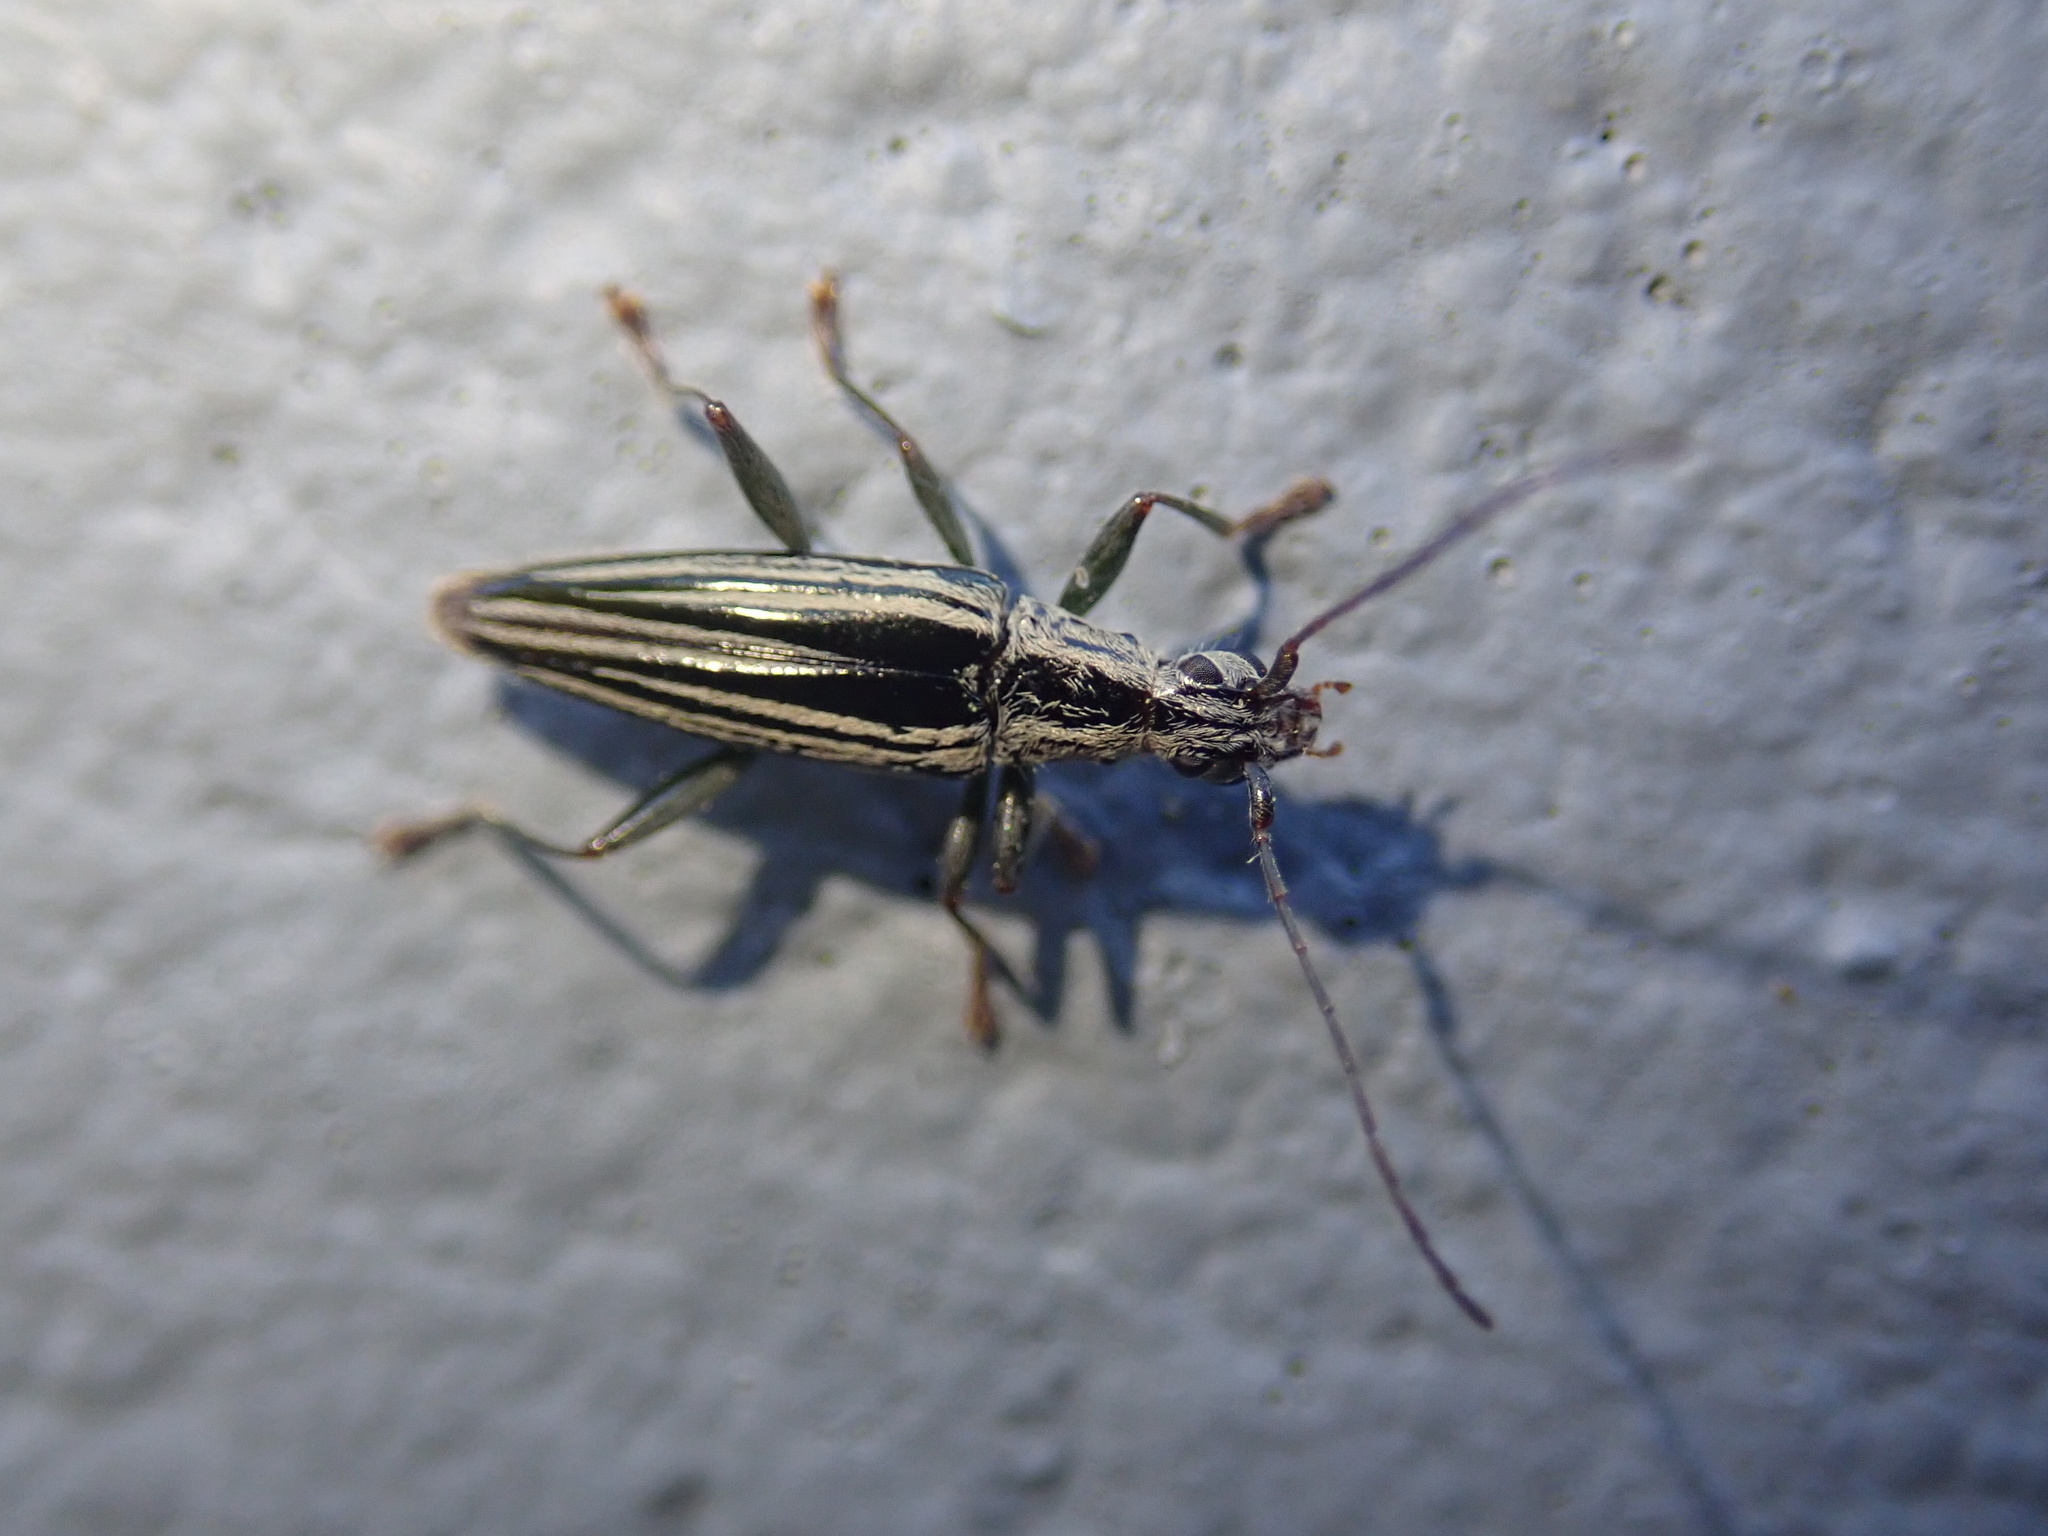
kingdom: Animalia
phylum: Arthropoda
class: Insecta
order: Coleoptera
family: Cerambycidae
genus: Coptomma
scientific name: Coptomma sulcatum
